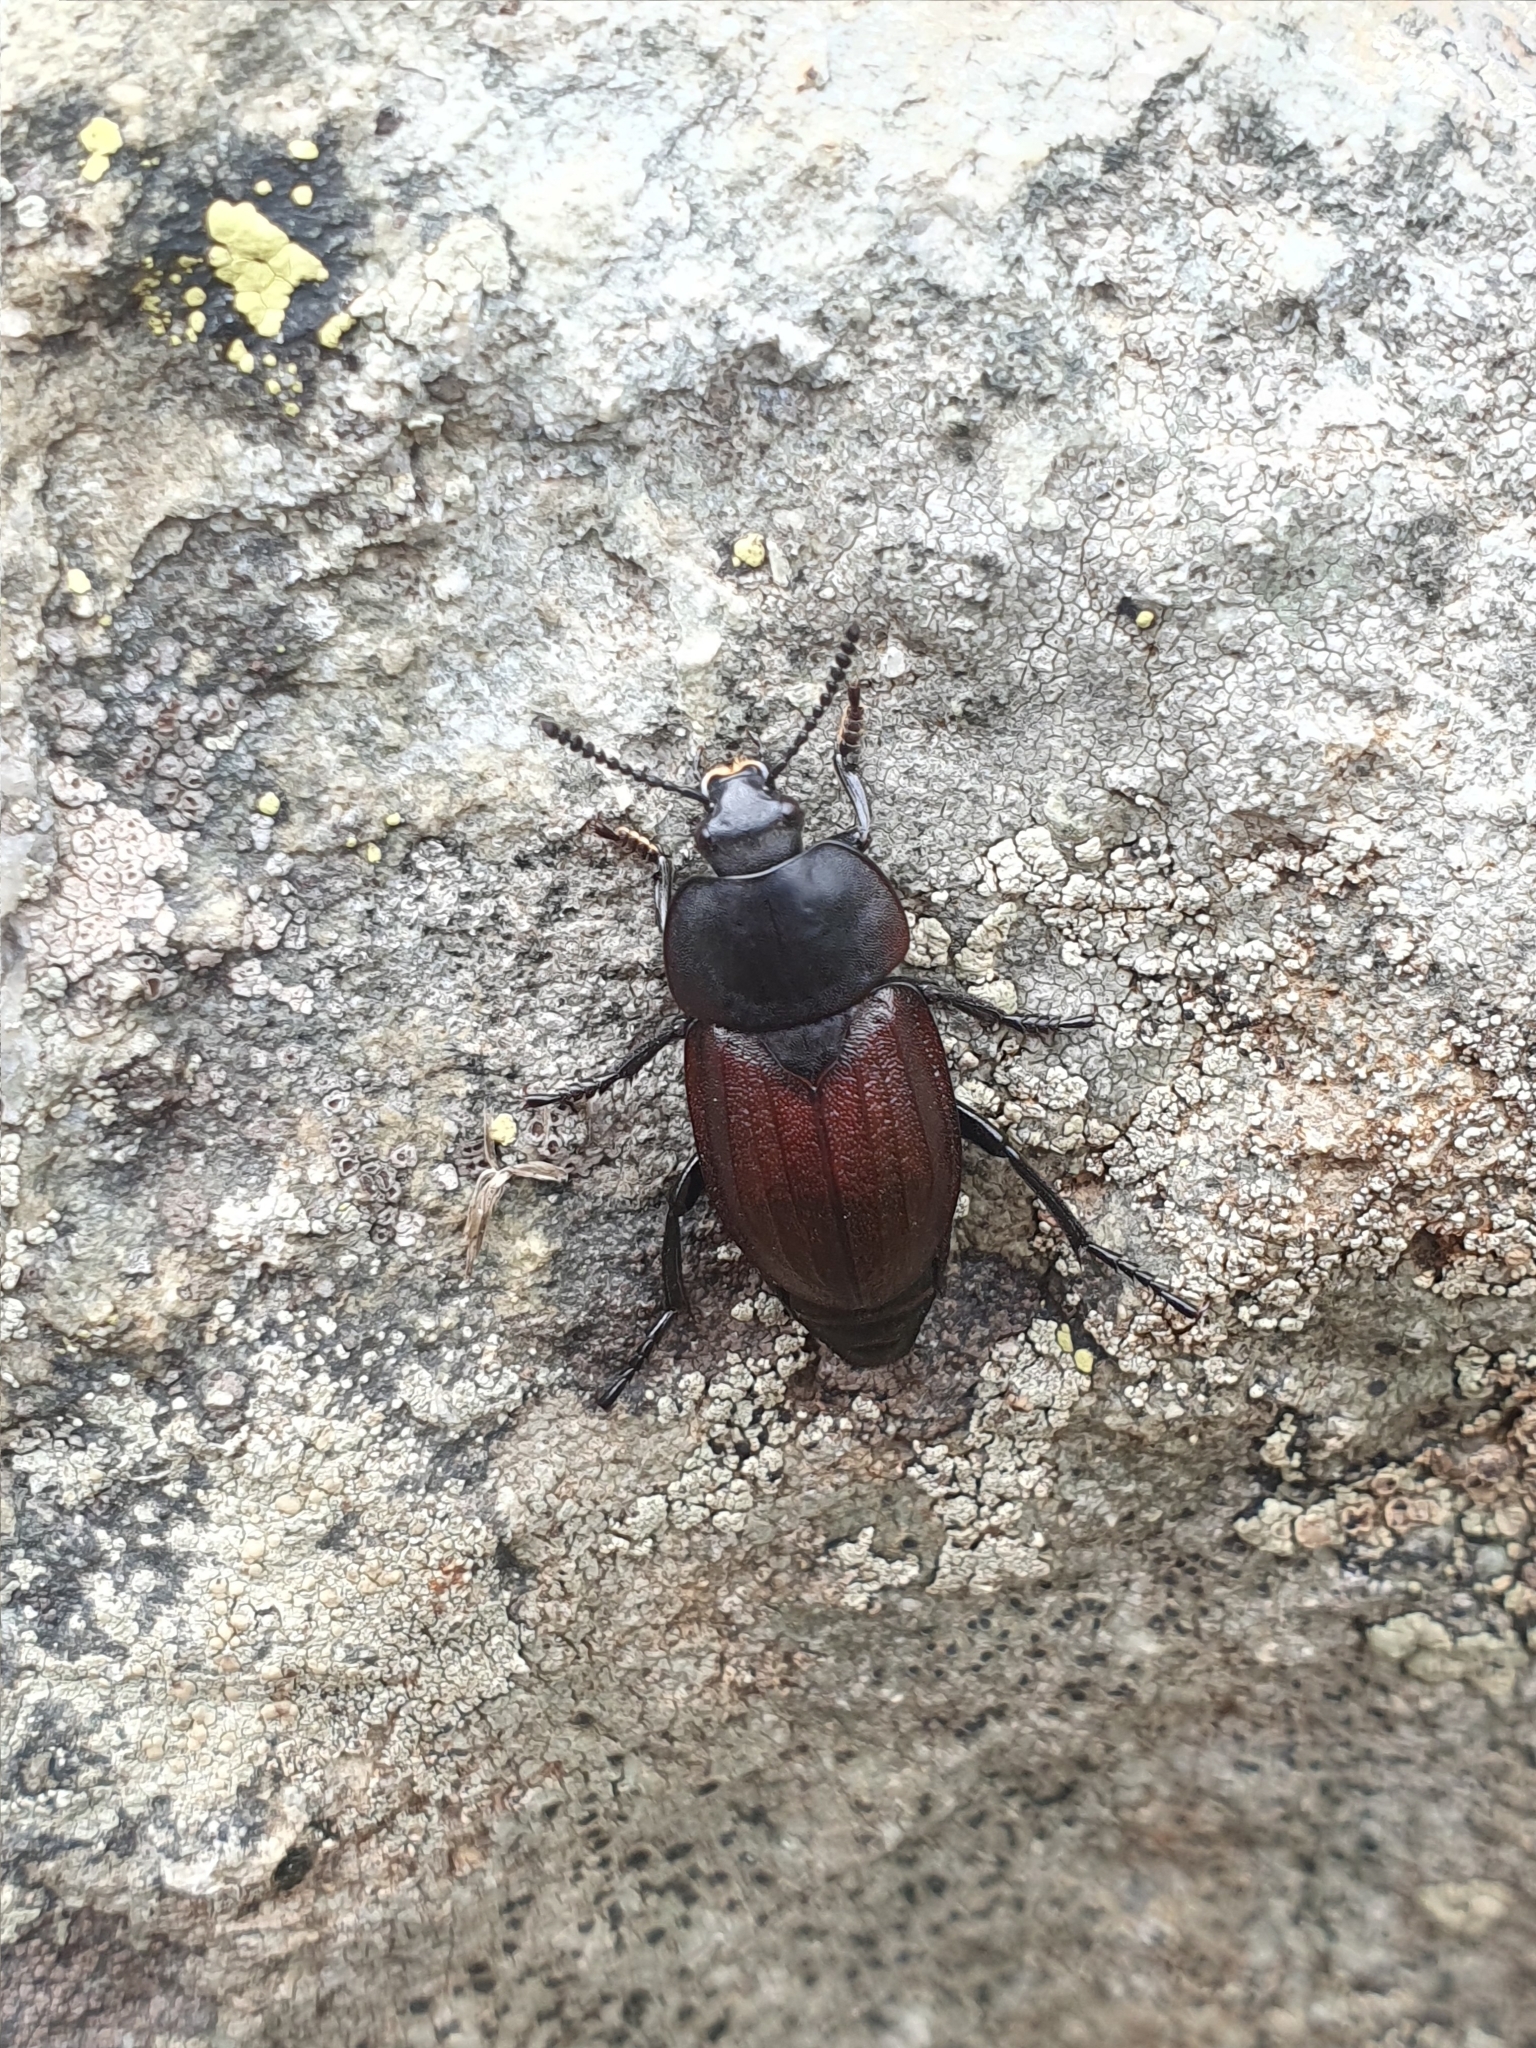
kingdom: Animalia
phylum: Arthropoda
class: Insecta
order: Coleoptera
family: Staphylinidae
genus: Silpha
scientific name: Silpha tyrolensis
